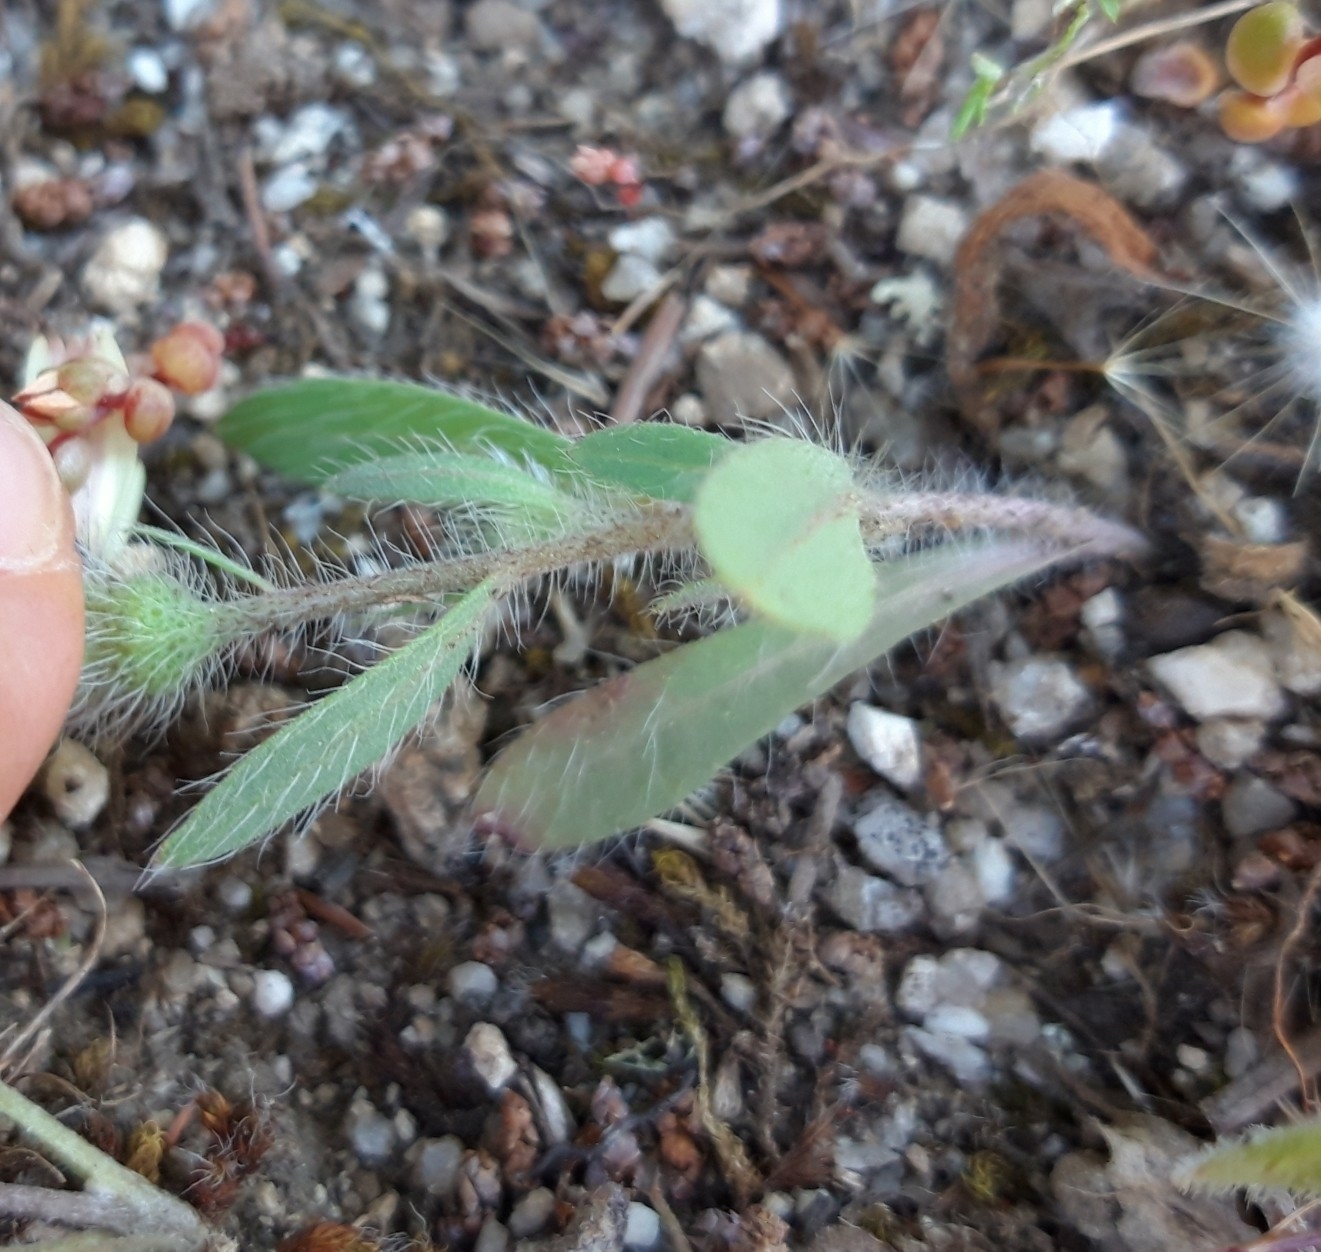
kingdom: Plantae
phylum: Tracheophyta
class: Magnoliopsida
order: Asterales
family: Asteraceae
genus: Hispidella
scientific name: Hispidella hispanica
